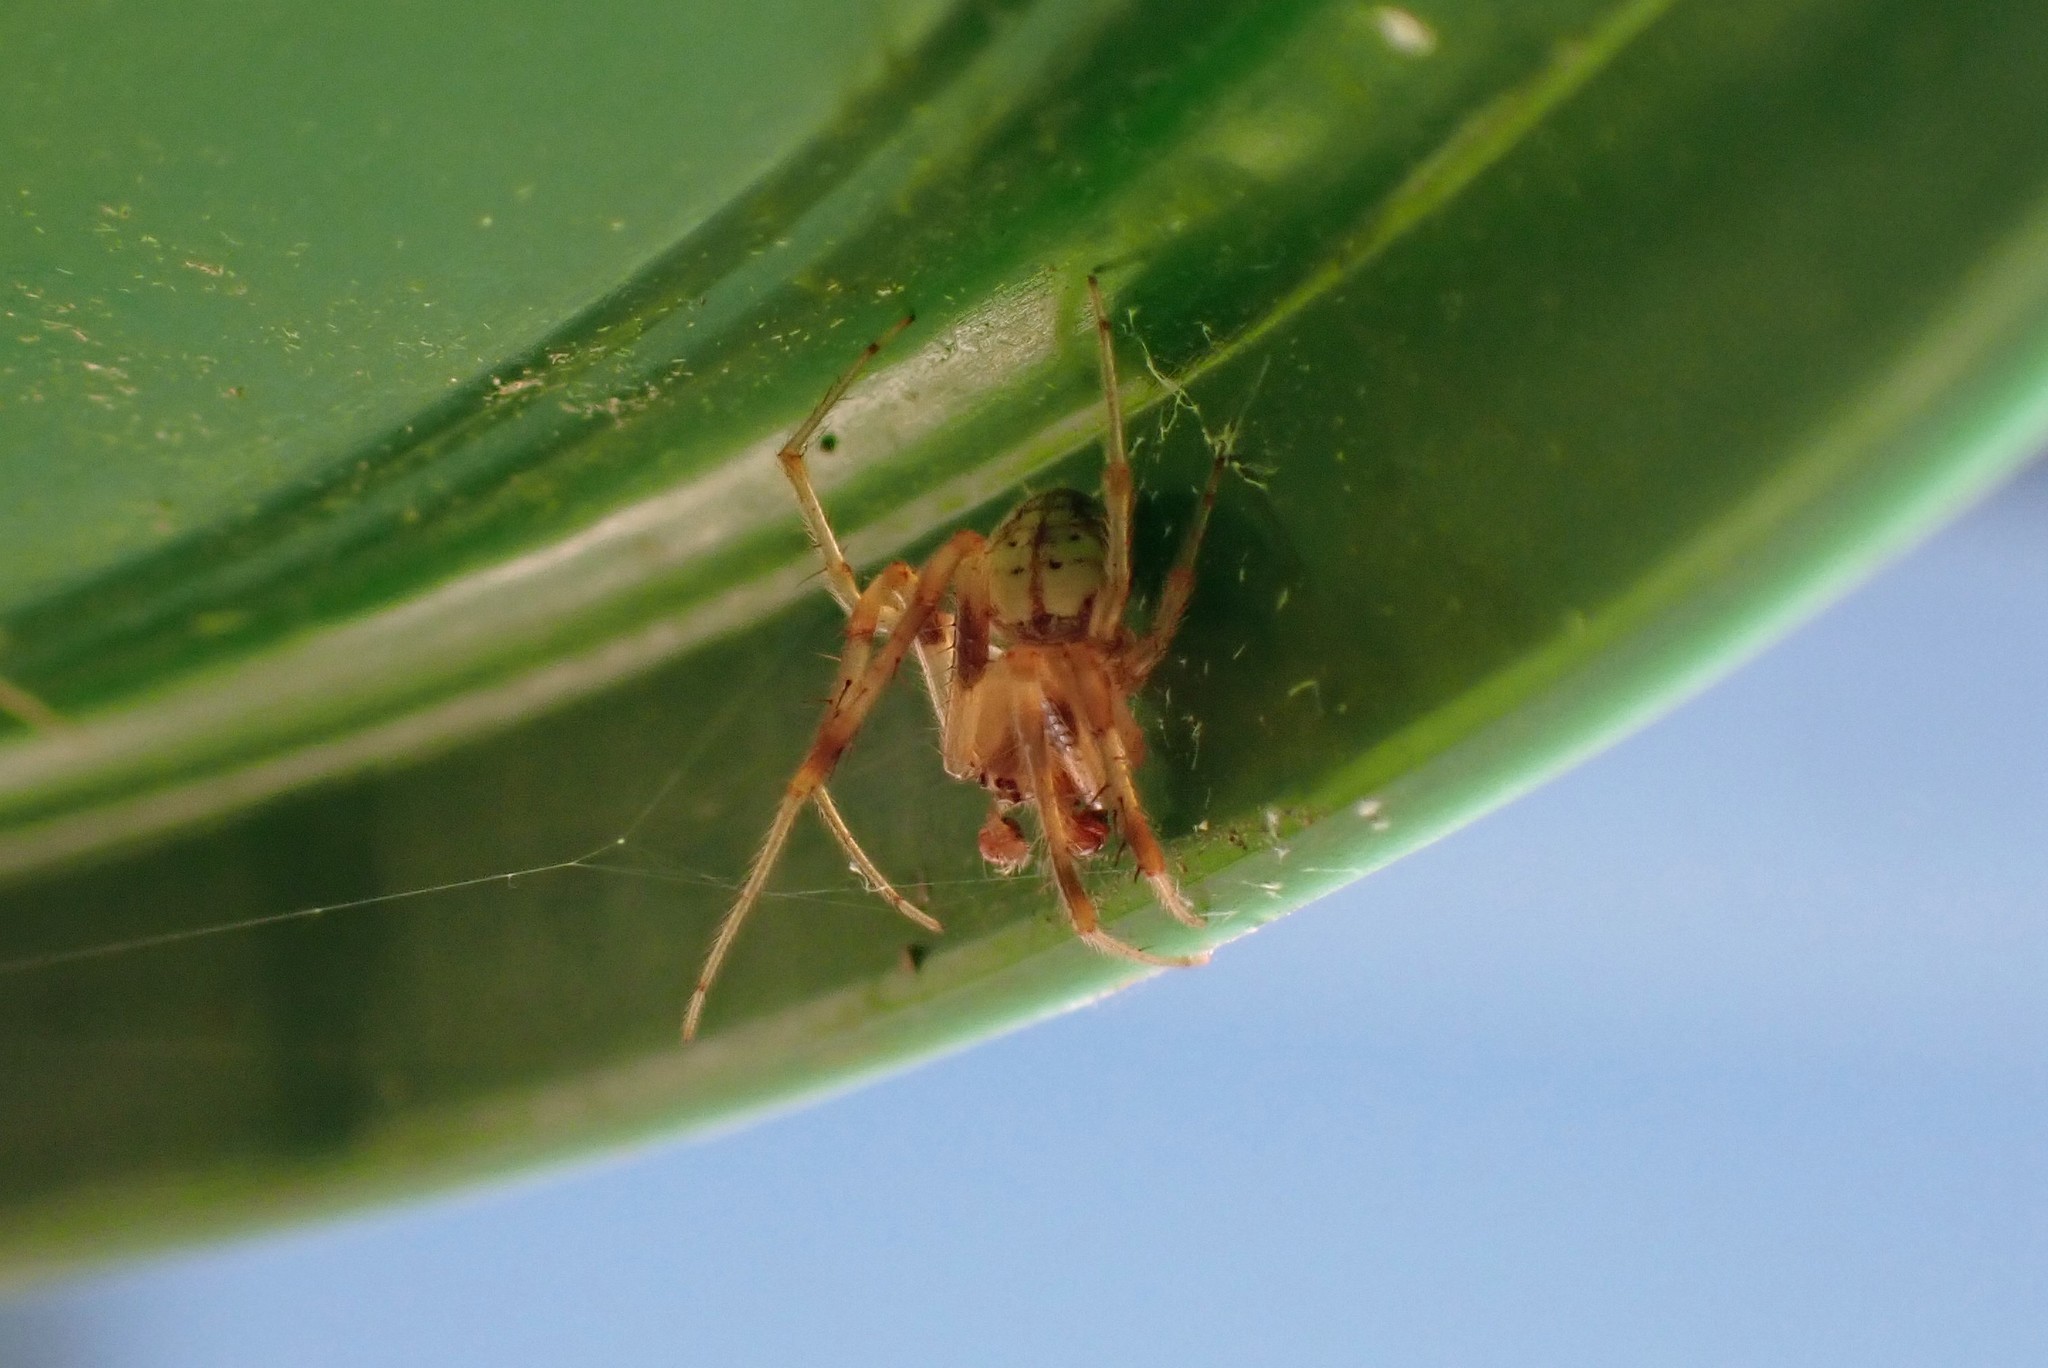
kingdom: Animalia
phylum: Arthropoda
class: Arachnida
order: Araneae
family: Araneidae
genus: Araneus
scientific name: Araneus thaddeus
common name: Lattice orbweaver
